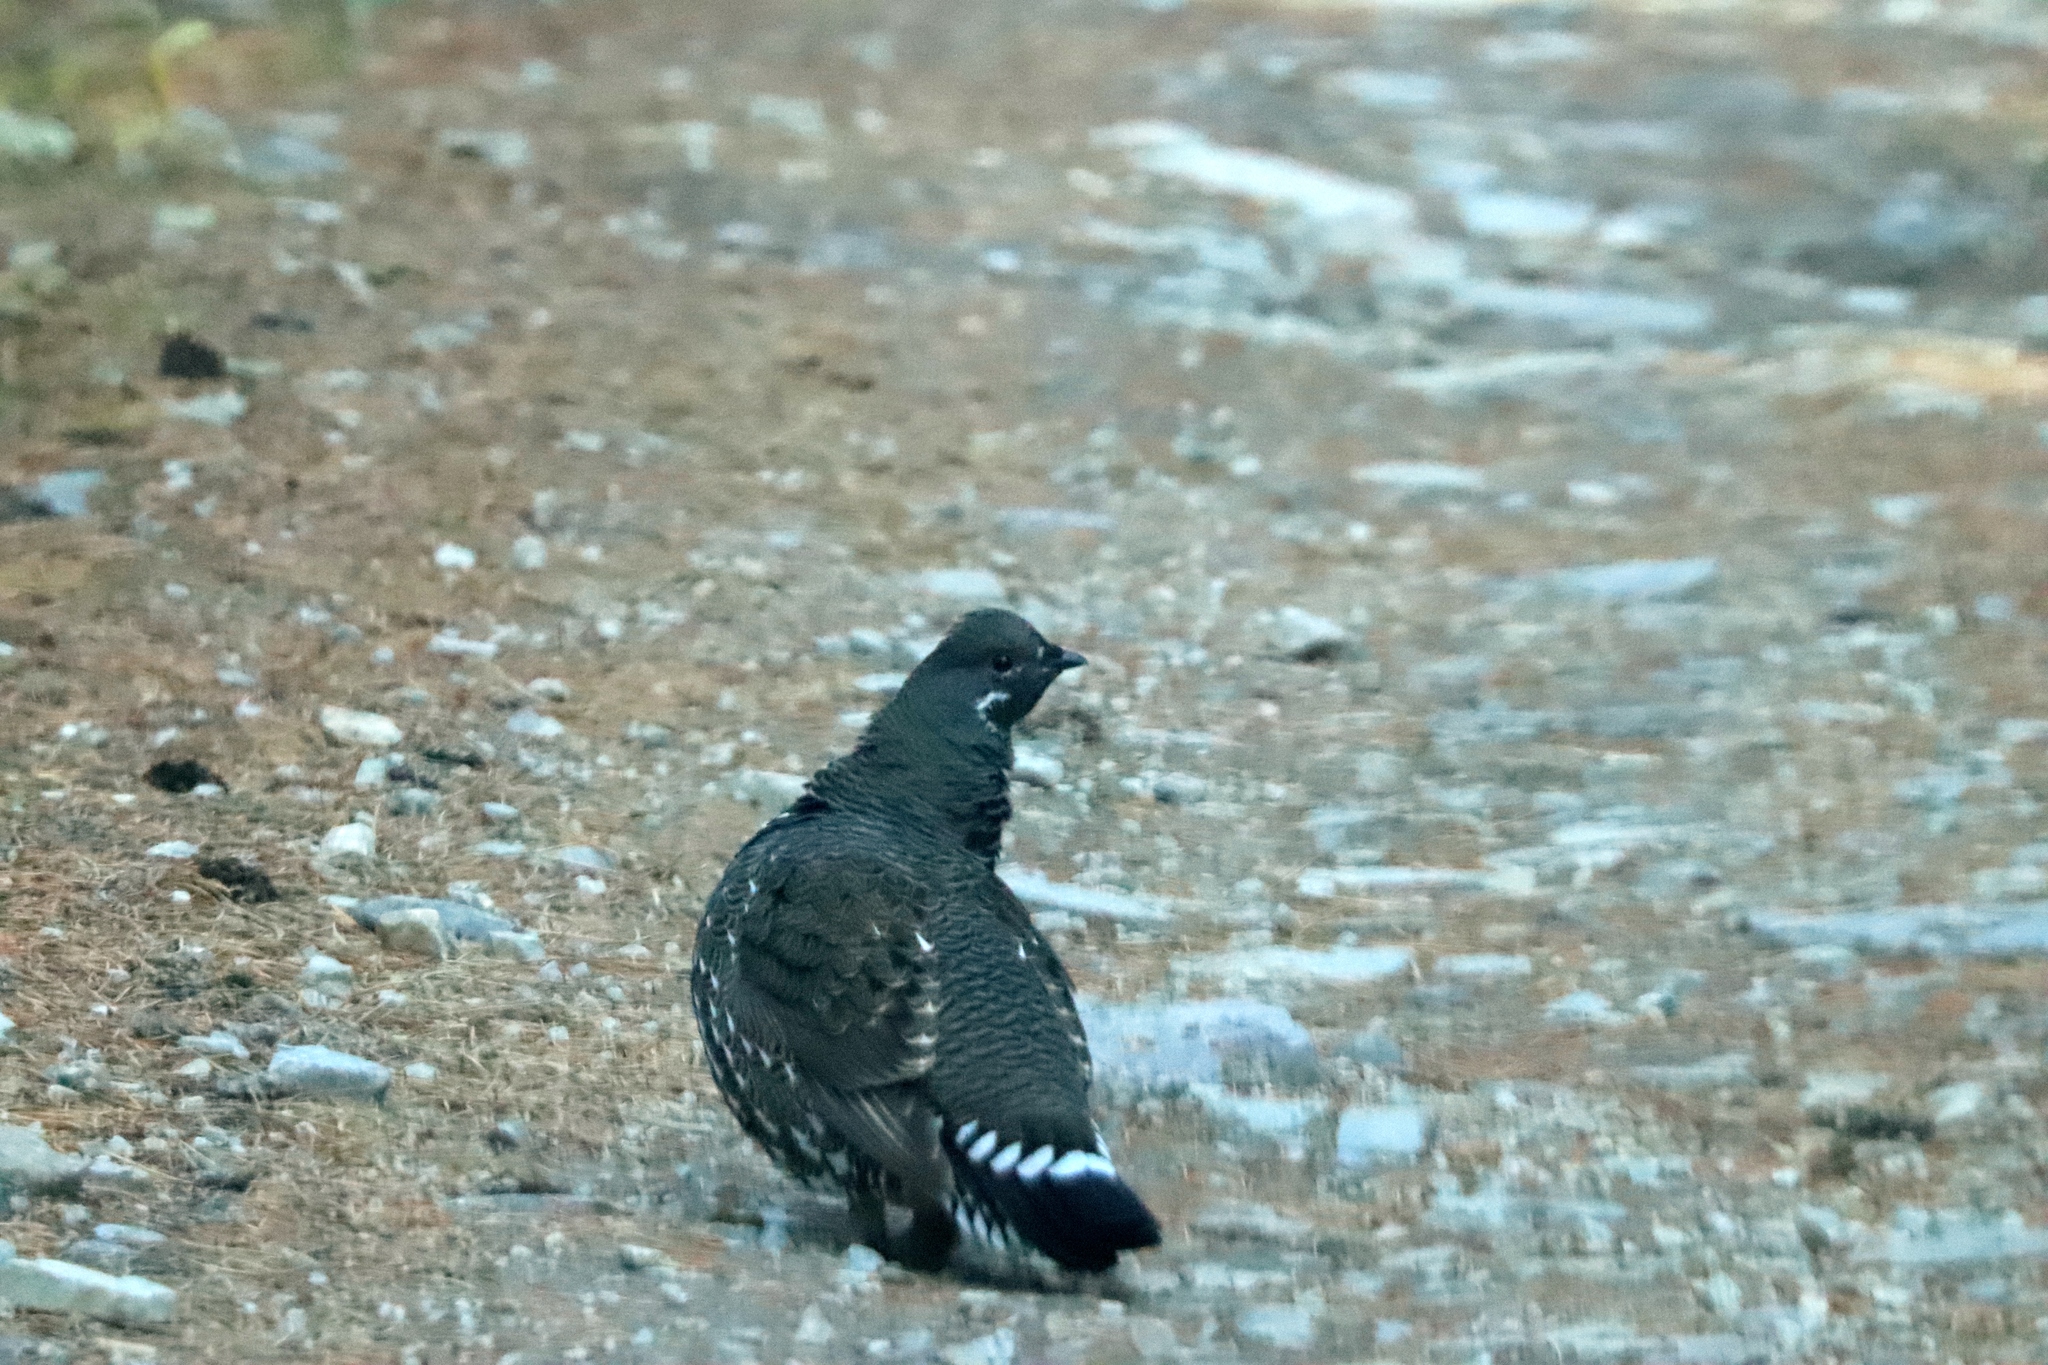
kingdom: Animalia
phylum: Chordata
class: Aves
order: Galliformes
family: Phasianidae
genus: Canachites
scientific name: Canachites canadensis
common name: Spruce grouse
